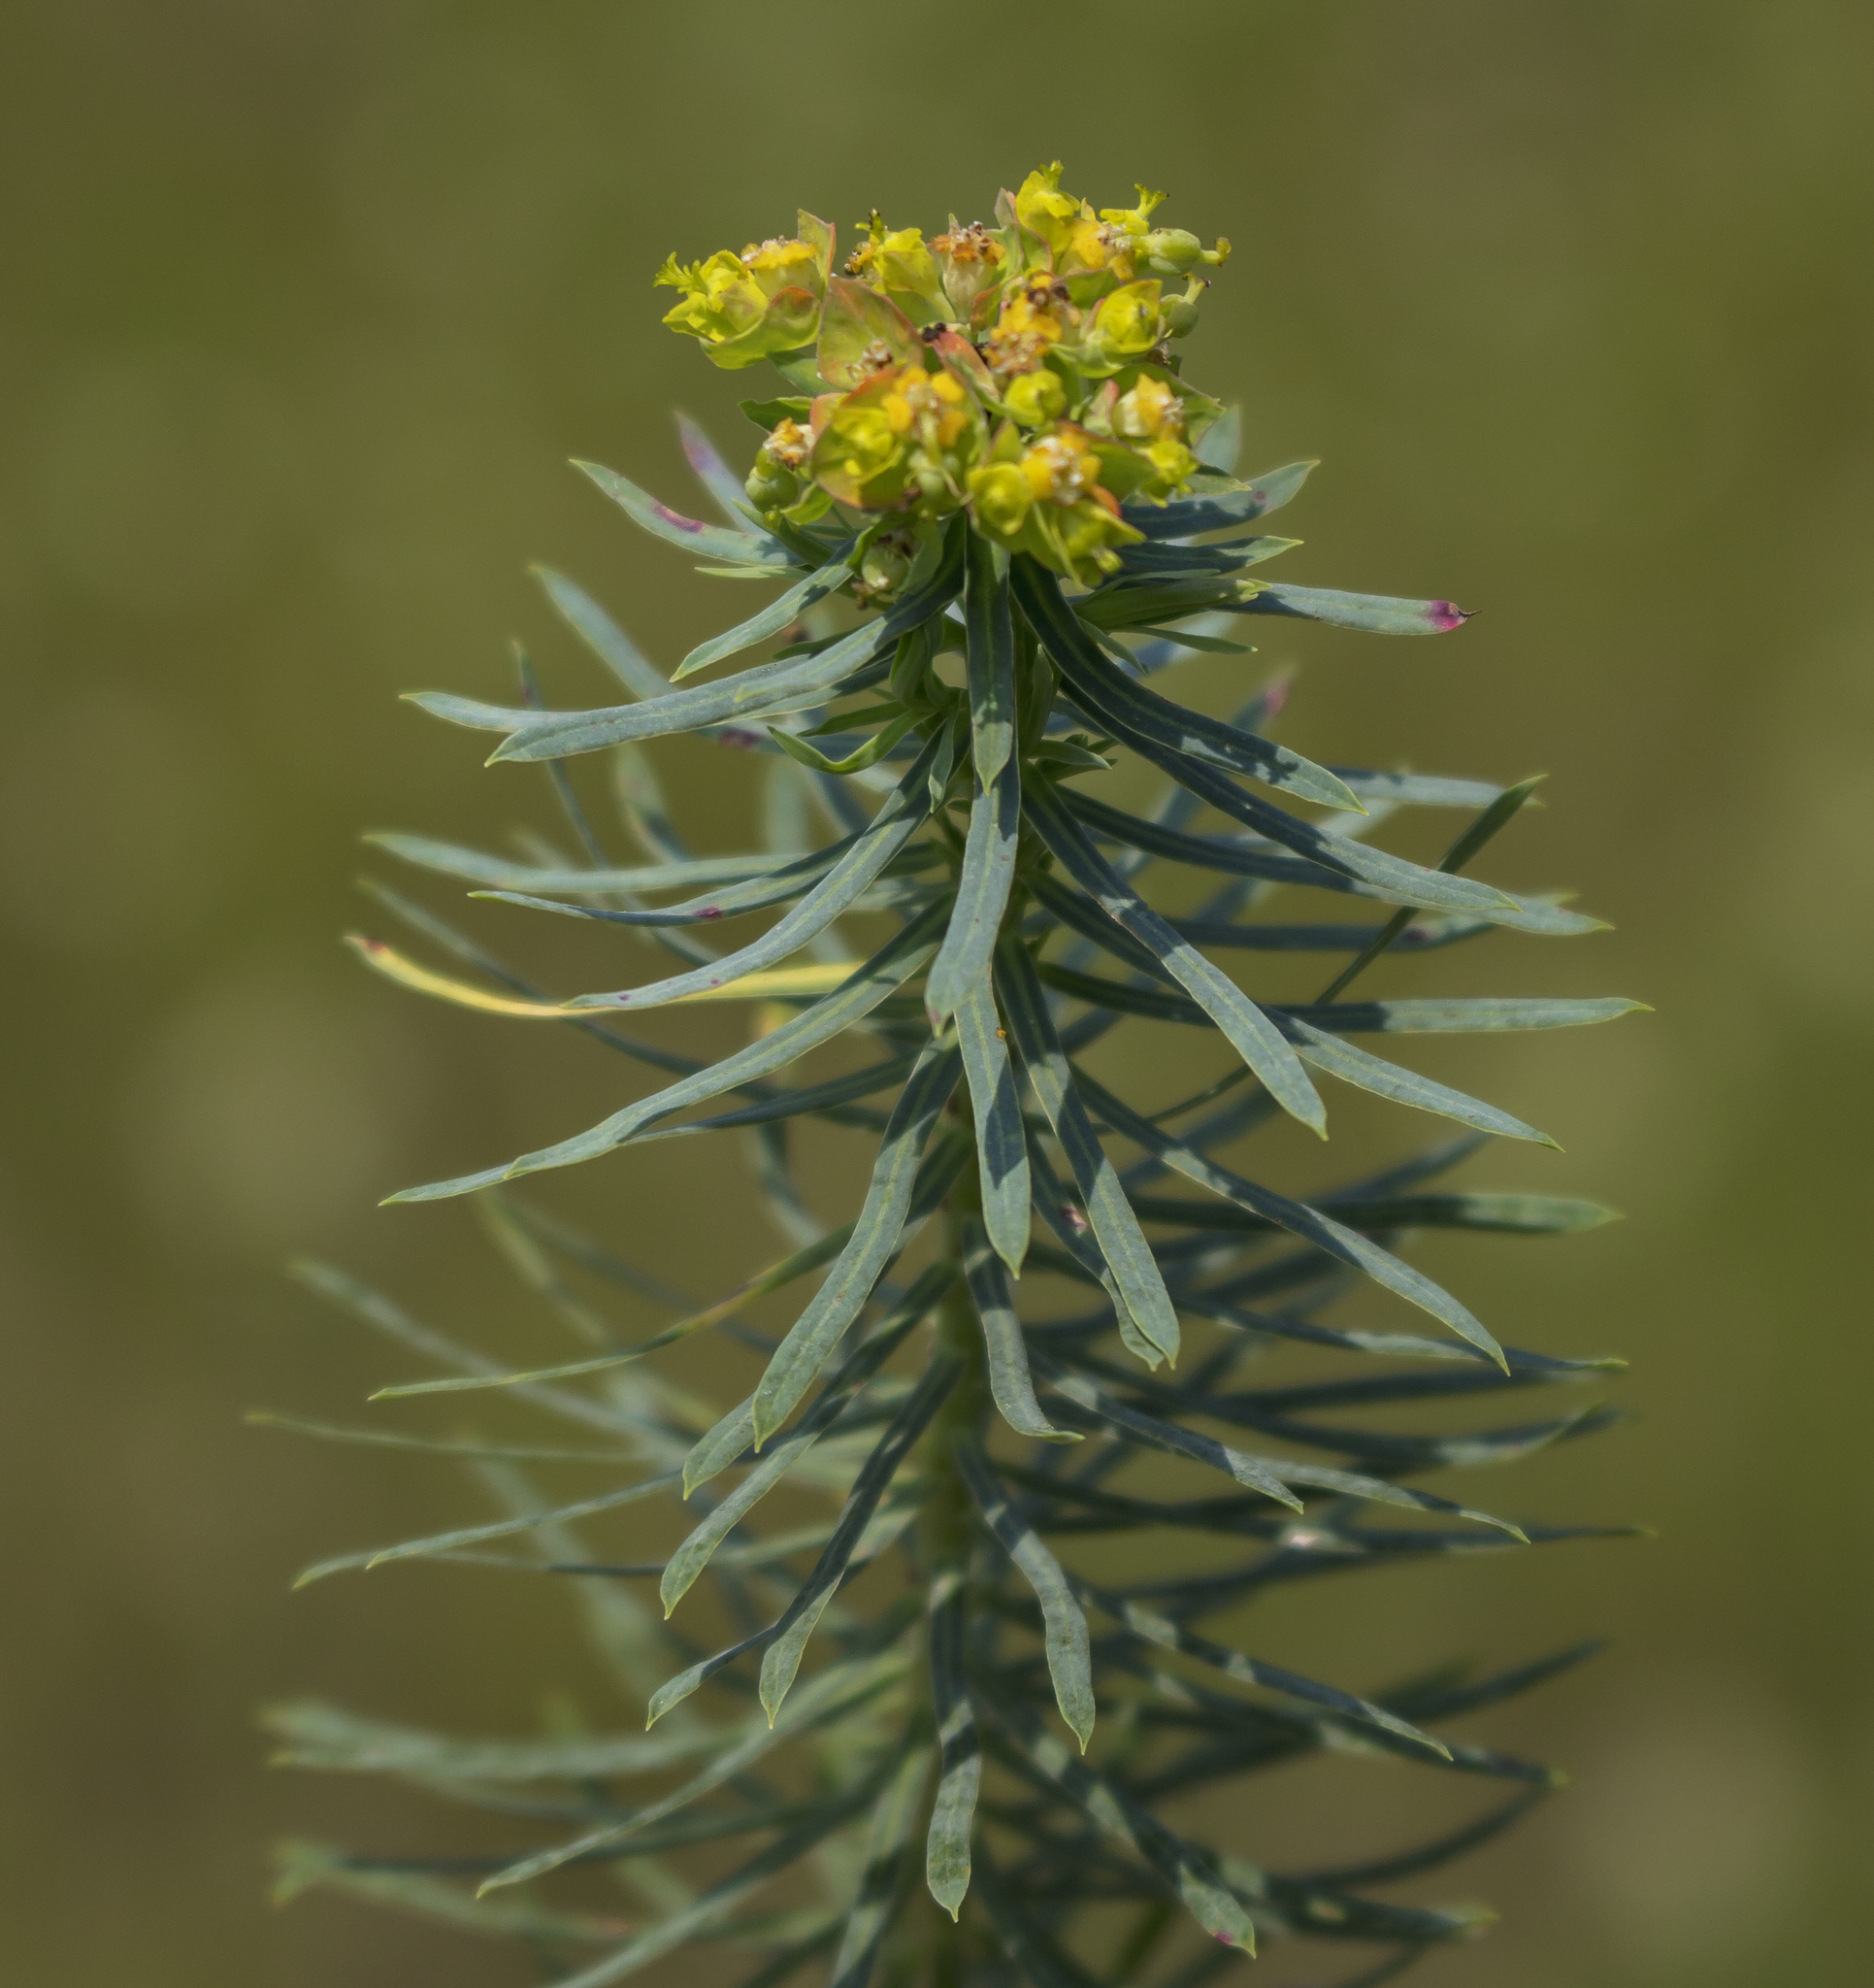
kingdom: Plantae
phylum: Tracheophyta
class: Magnoliopsida
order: Malpighiales
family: Euphorbiaceae
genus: Euphorbia
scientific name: Euphorbia cyparissias
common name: Cypress spurge
